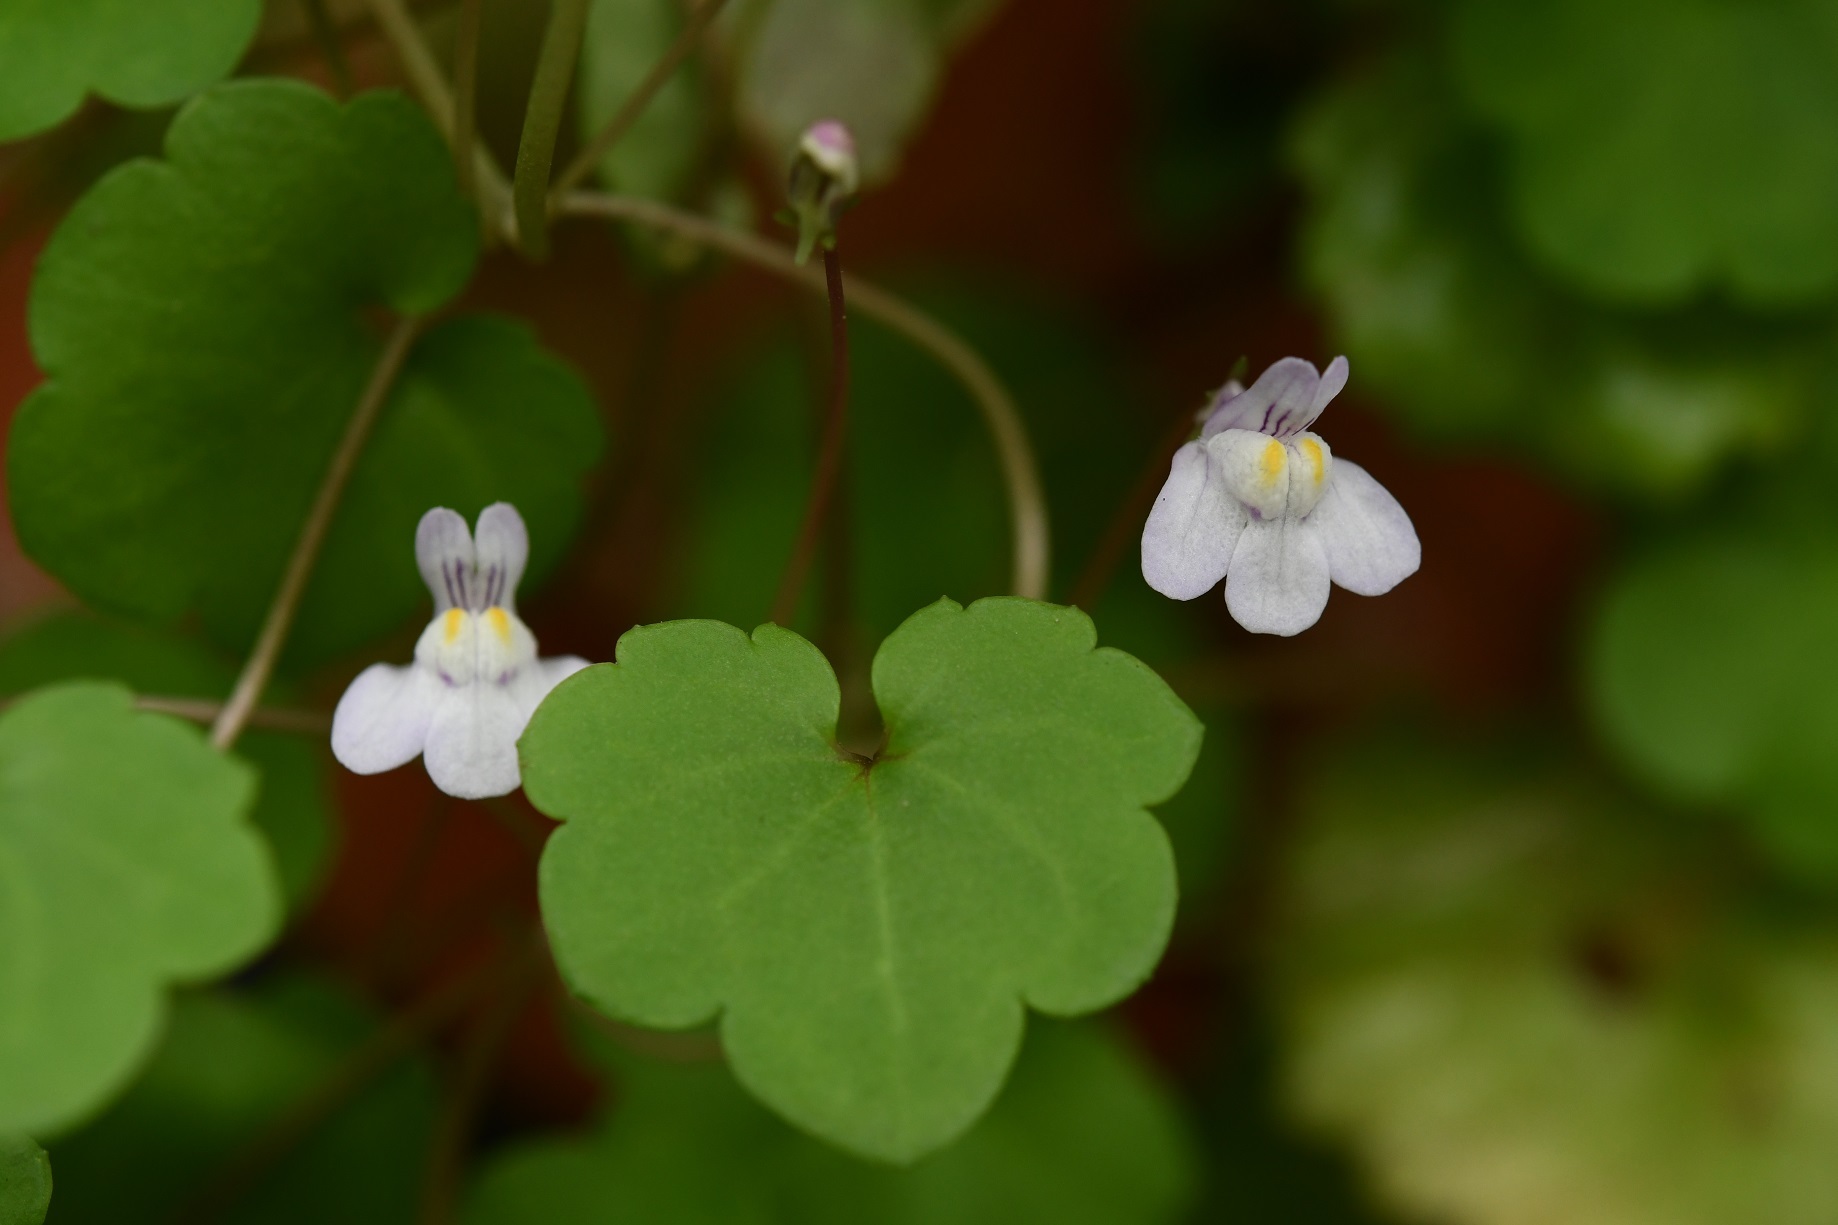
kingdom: Plantae
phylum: Tracheophyta
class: Magnoliopsida
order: Lamiales
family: Plantaginaceae
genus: Cymbalaria
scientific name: Cymbalaria muralis
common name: Ivy-leaved toadflax
